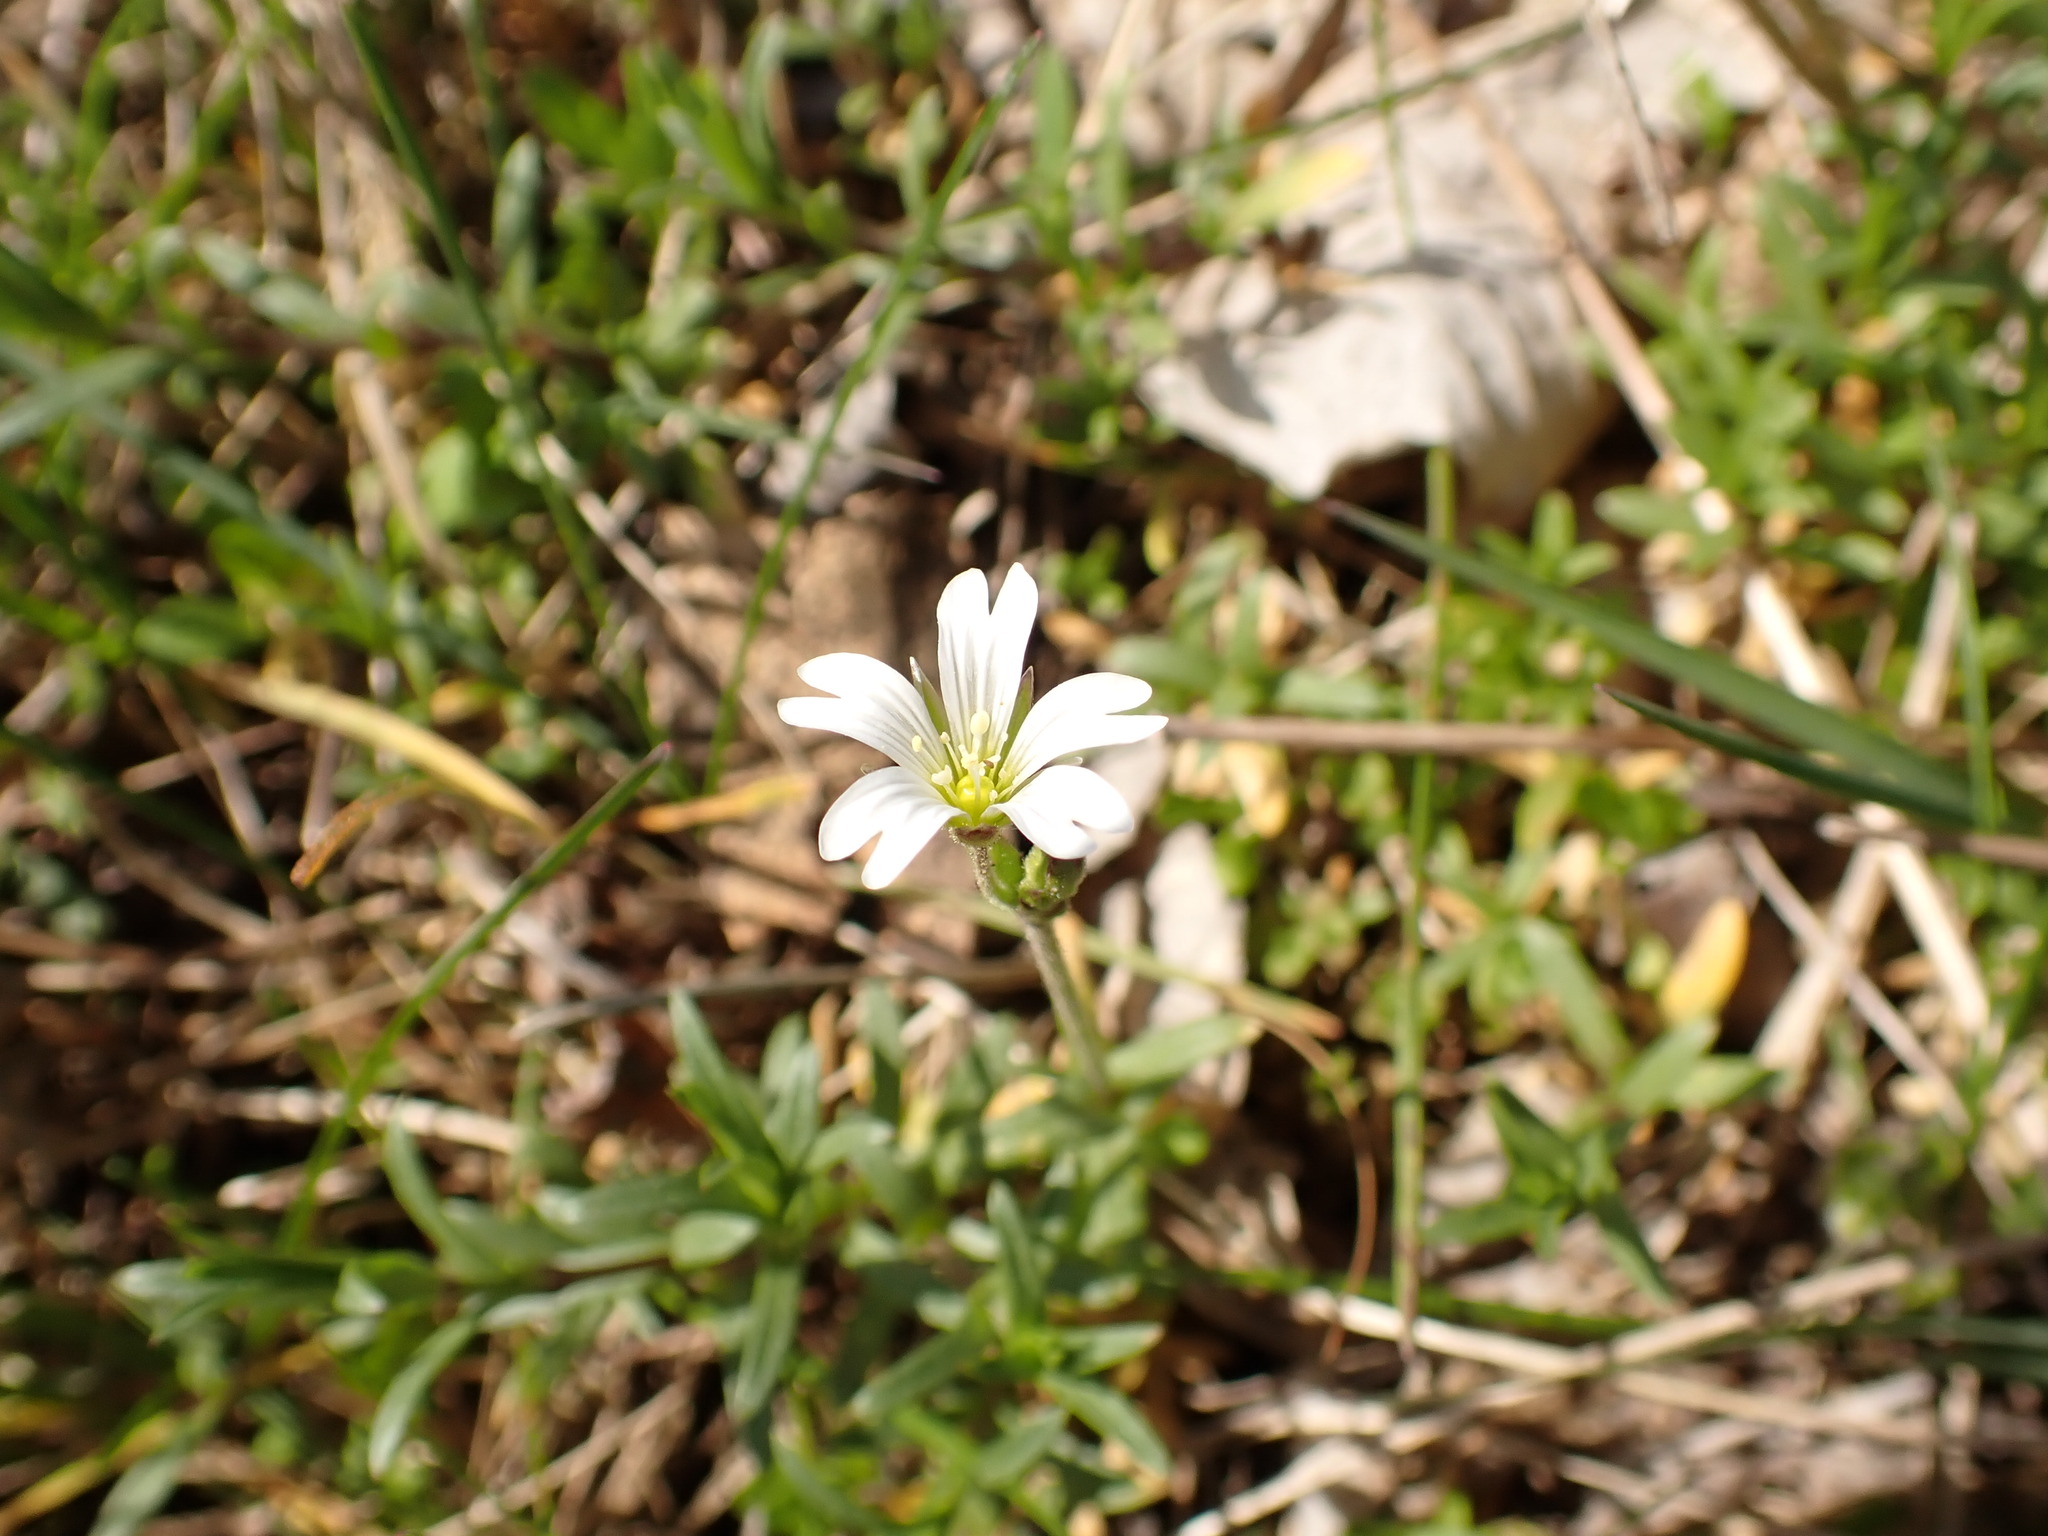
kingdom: Plantae
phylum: Tracheophyta
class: Magnoliopsida
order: Caryophyllales
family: Caryophyllaceae
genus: Cerastium
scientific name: Cerastium arvense
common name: Field mouse-ear
